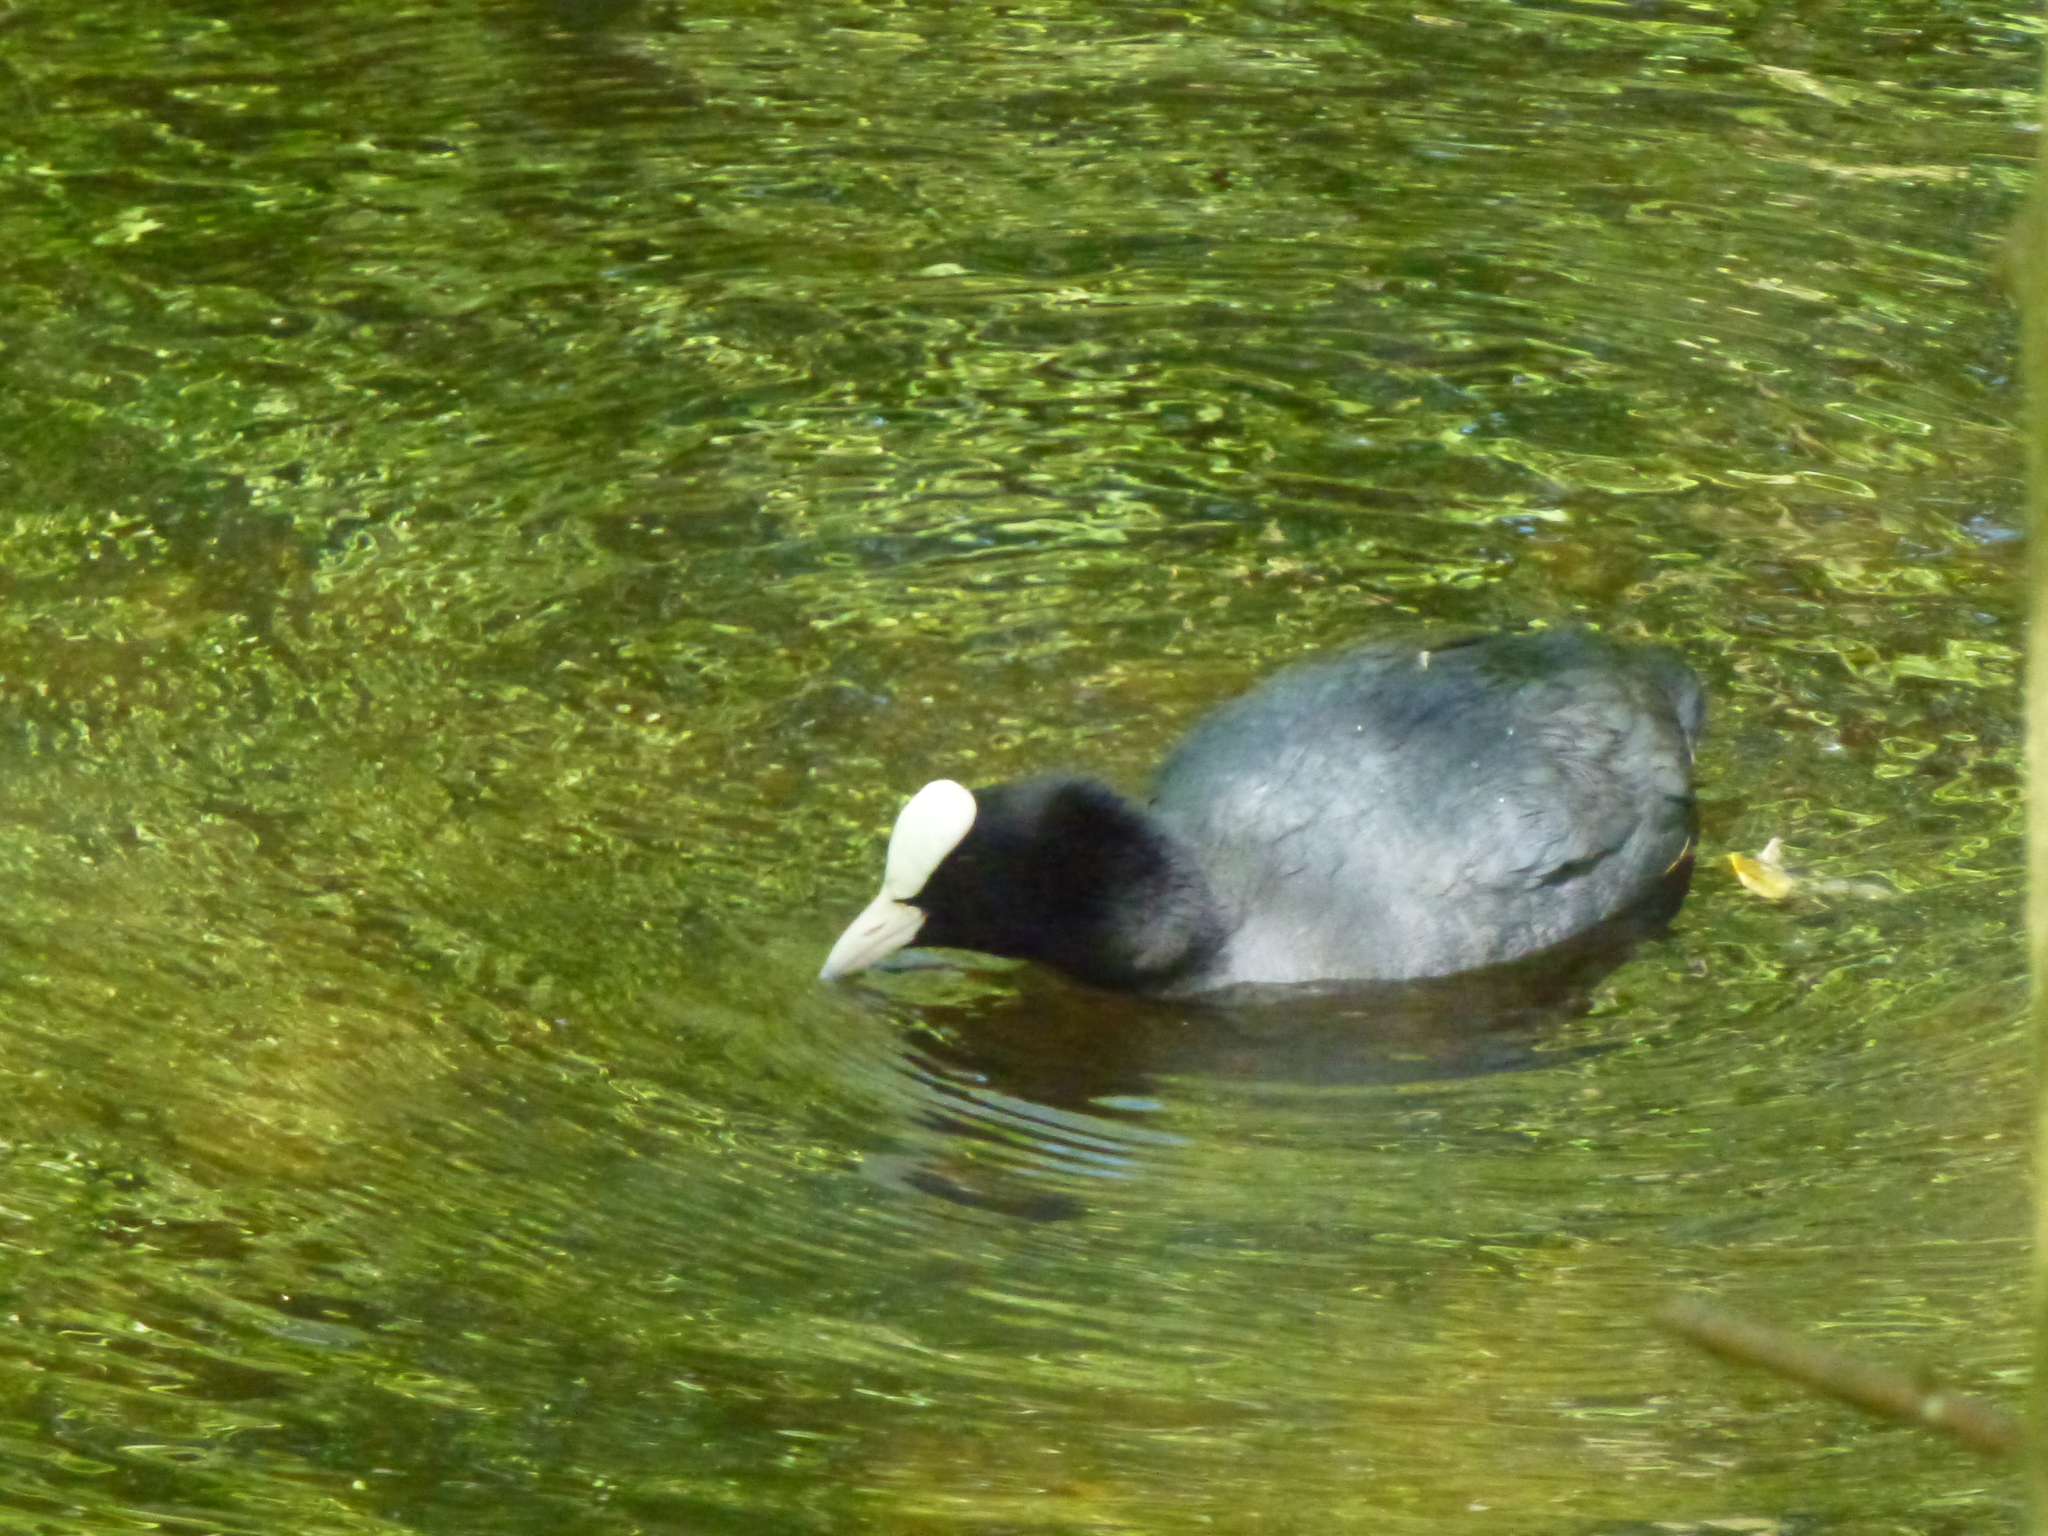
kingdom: Animalia
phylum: Chordata
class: Aves
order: Gruiformes
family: Rallidae
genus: Fulica
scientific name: Fulica atra
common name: Eurasian coot
